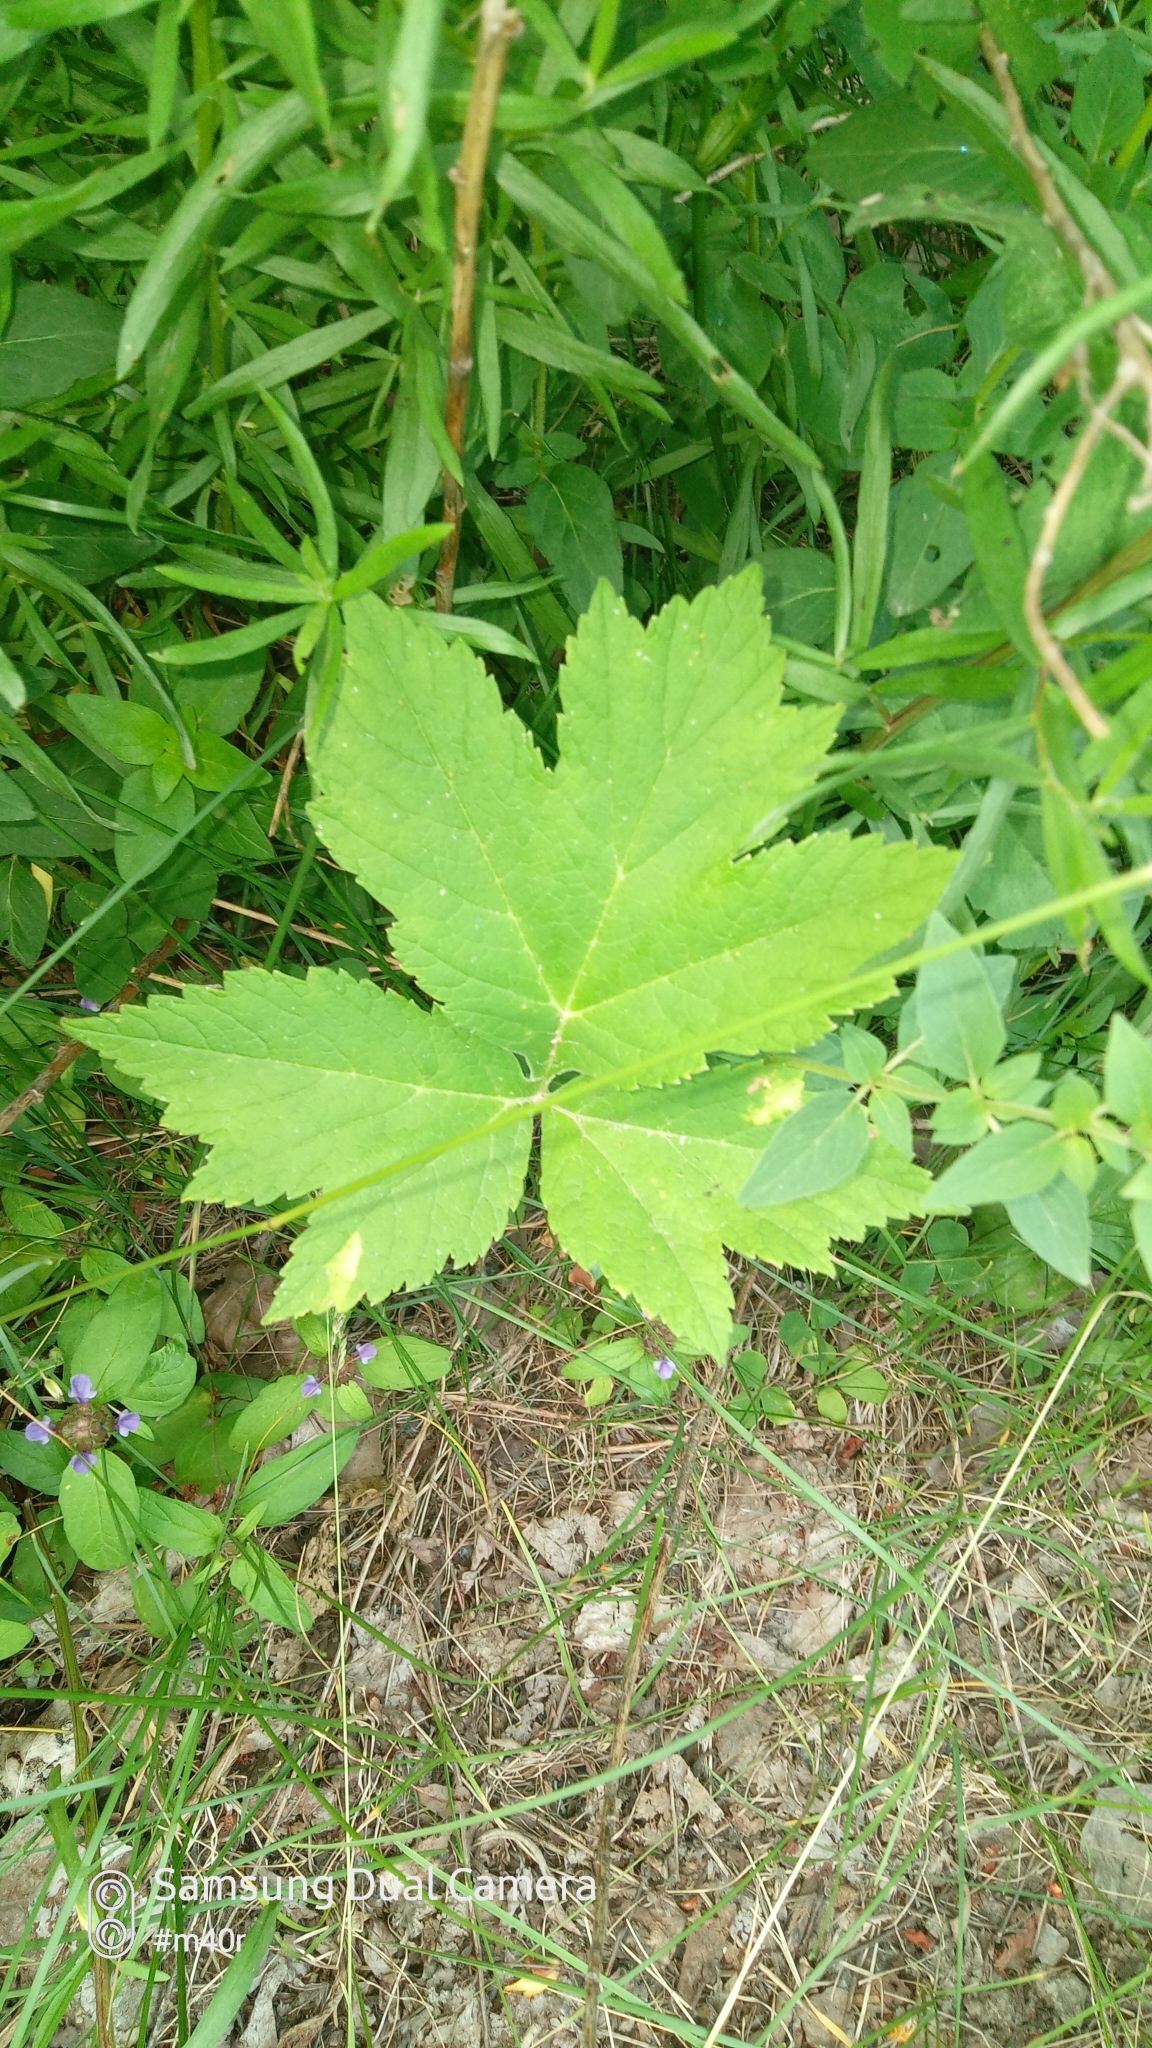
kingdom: Plantae
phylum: Tracheophyta
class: Magnoliopsida
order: Apiales
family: Apiaceae
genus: Heracleum
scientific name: Heracleum dissectum
